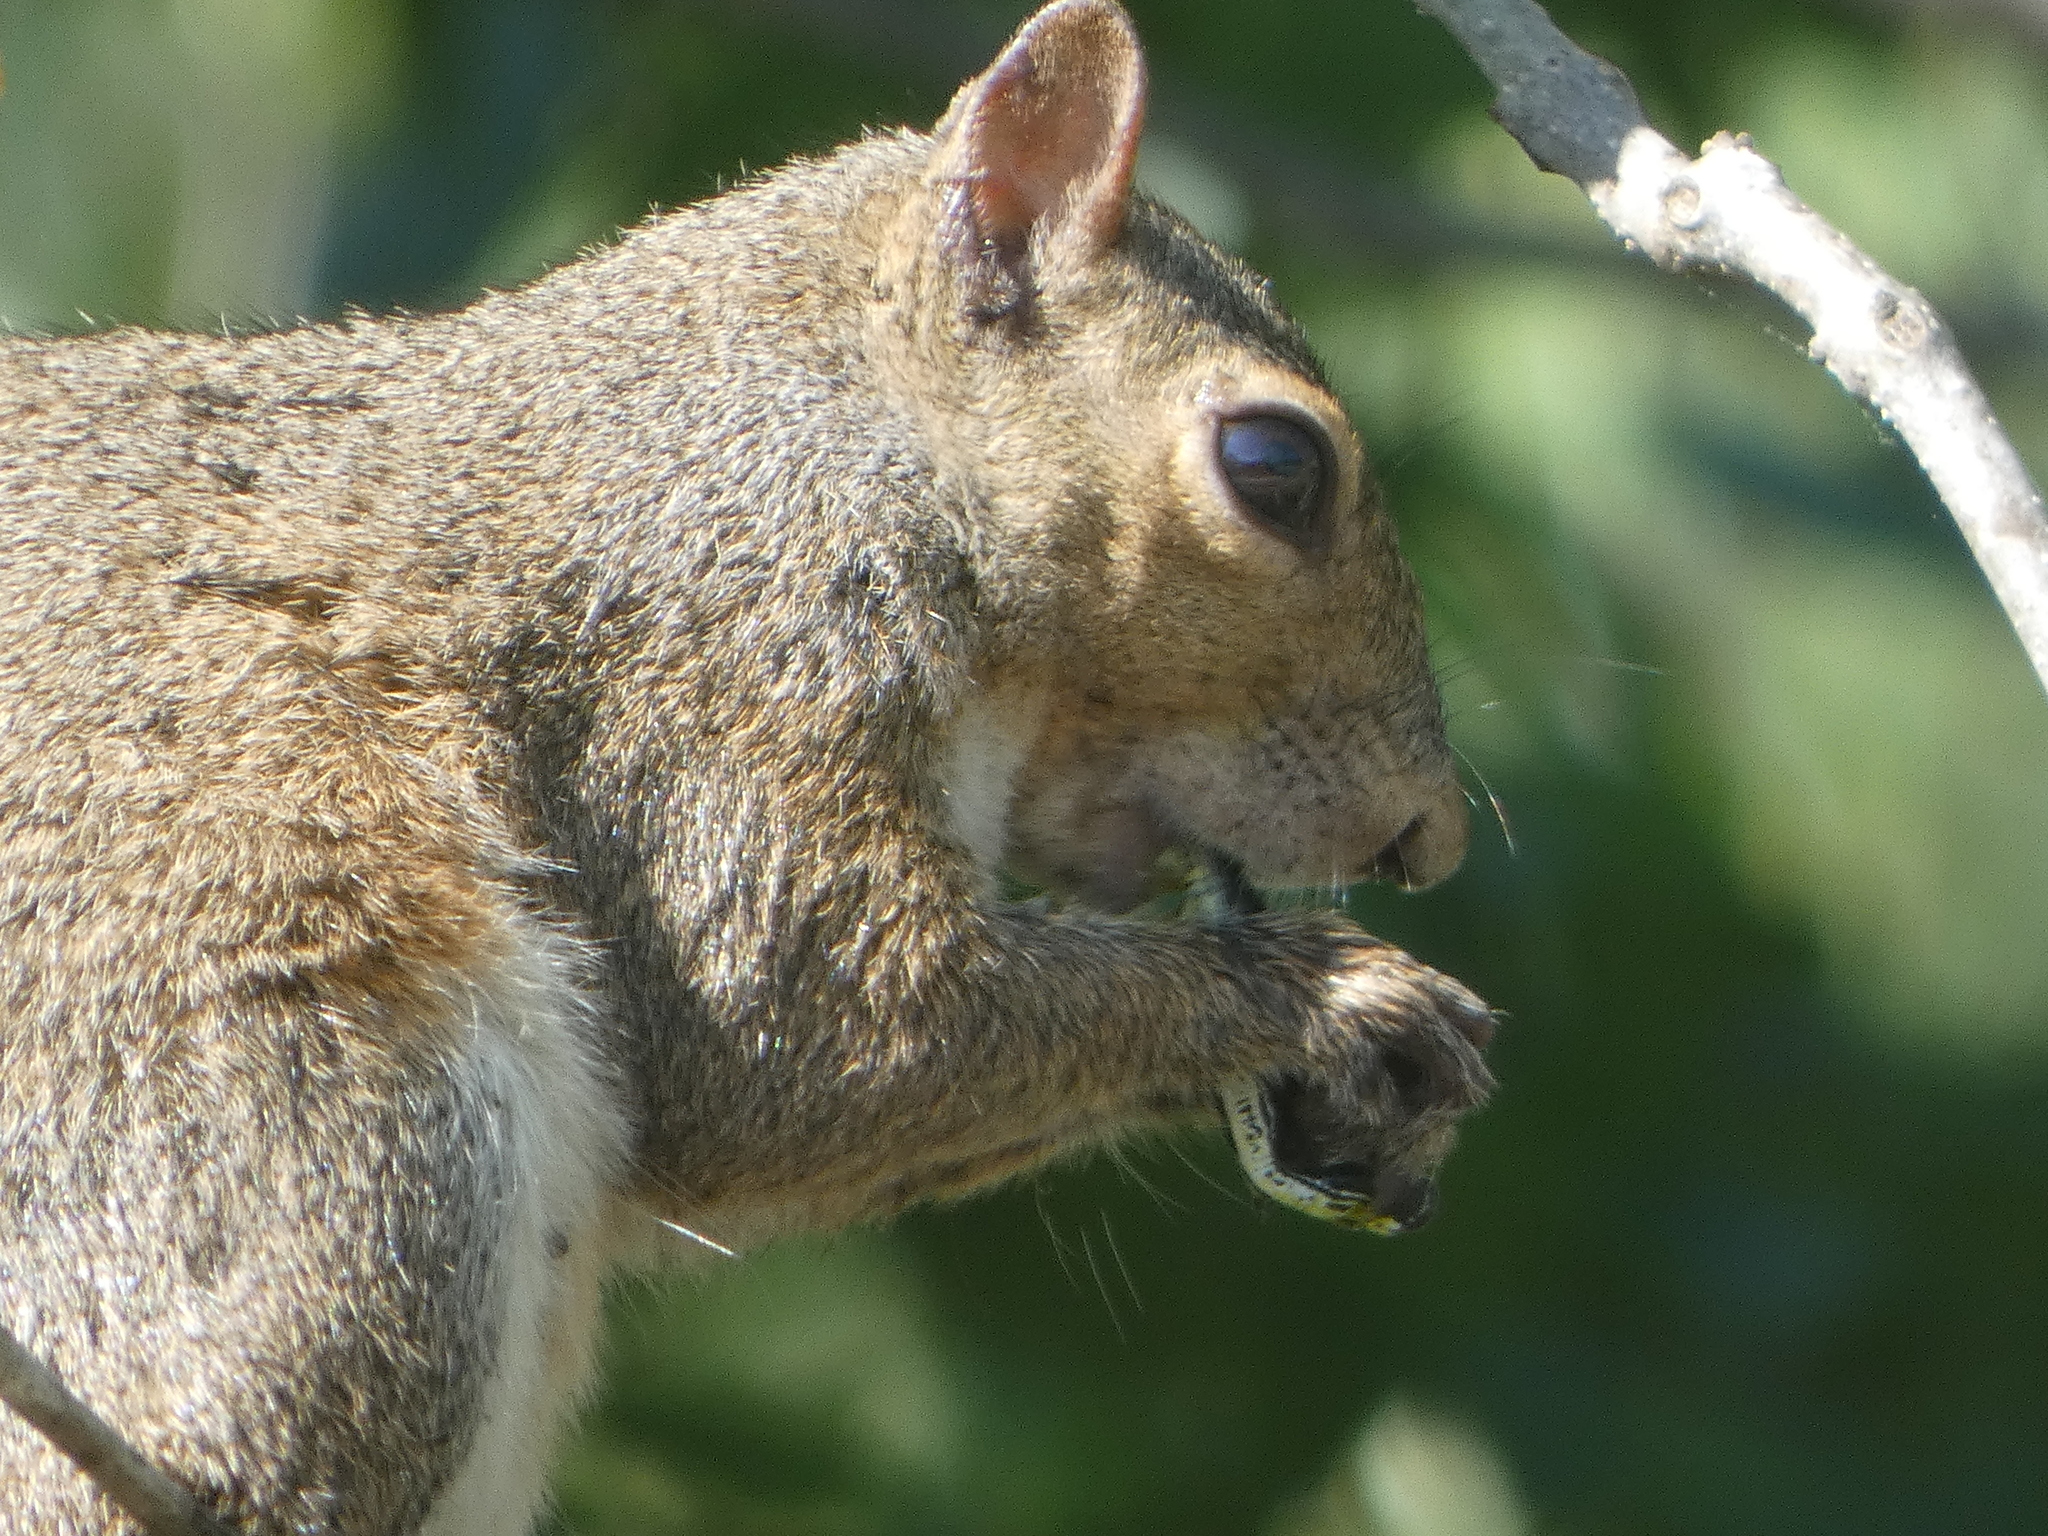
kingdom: Animalia
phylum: Chordata
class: Mammalia
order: Rodentia
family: Sciuridae
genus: Sciurus
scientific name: Sciurus carolinensis
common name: Eastern gray squirrel
